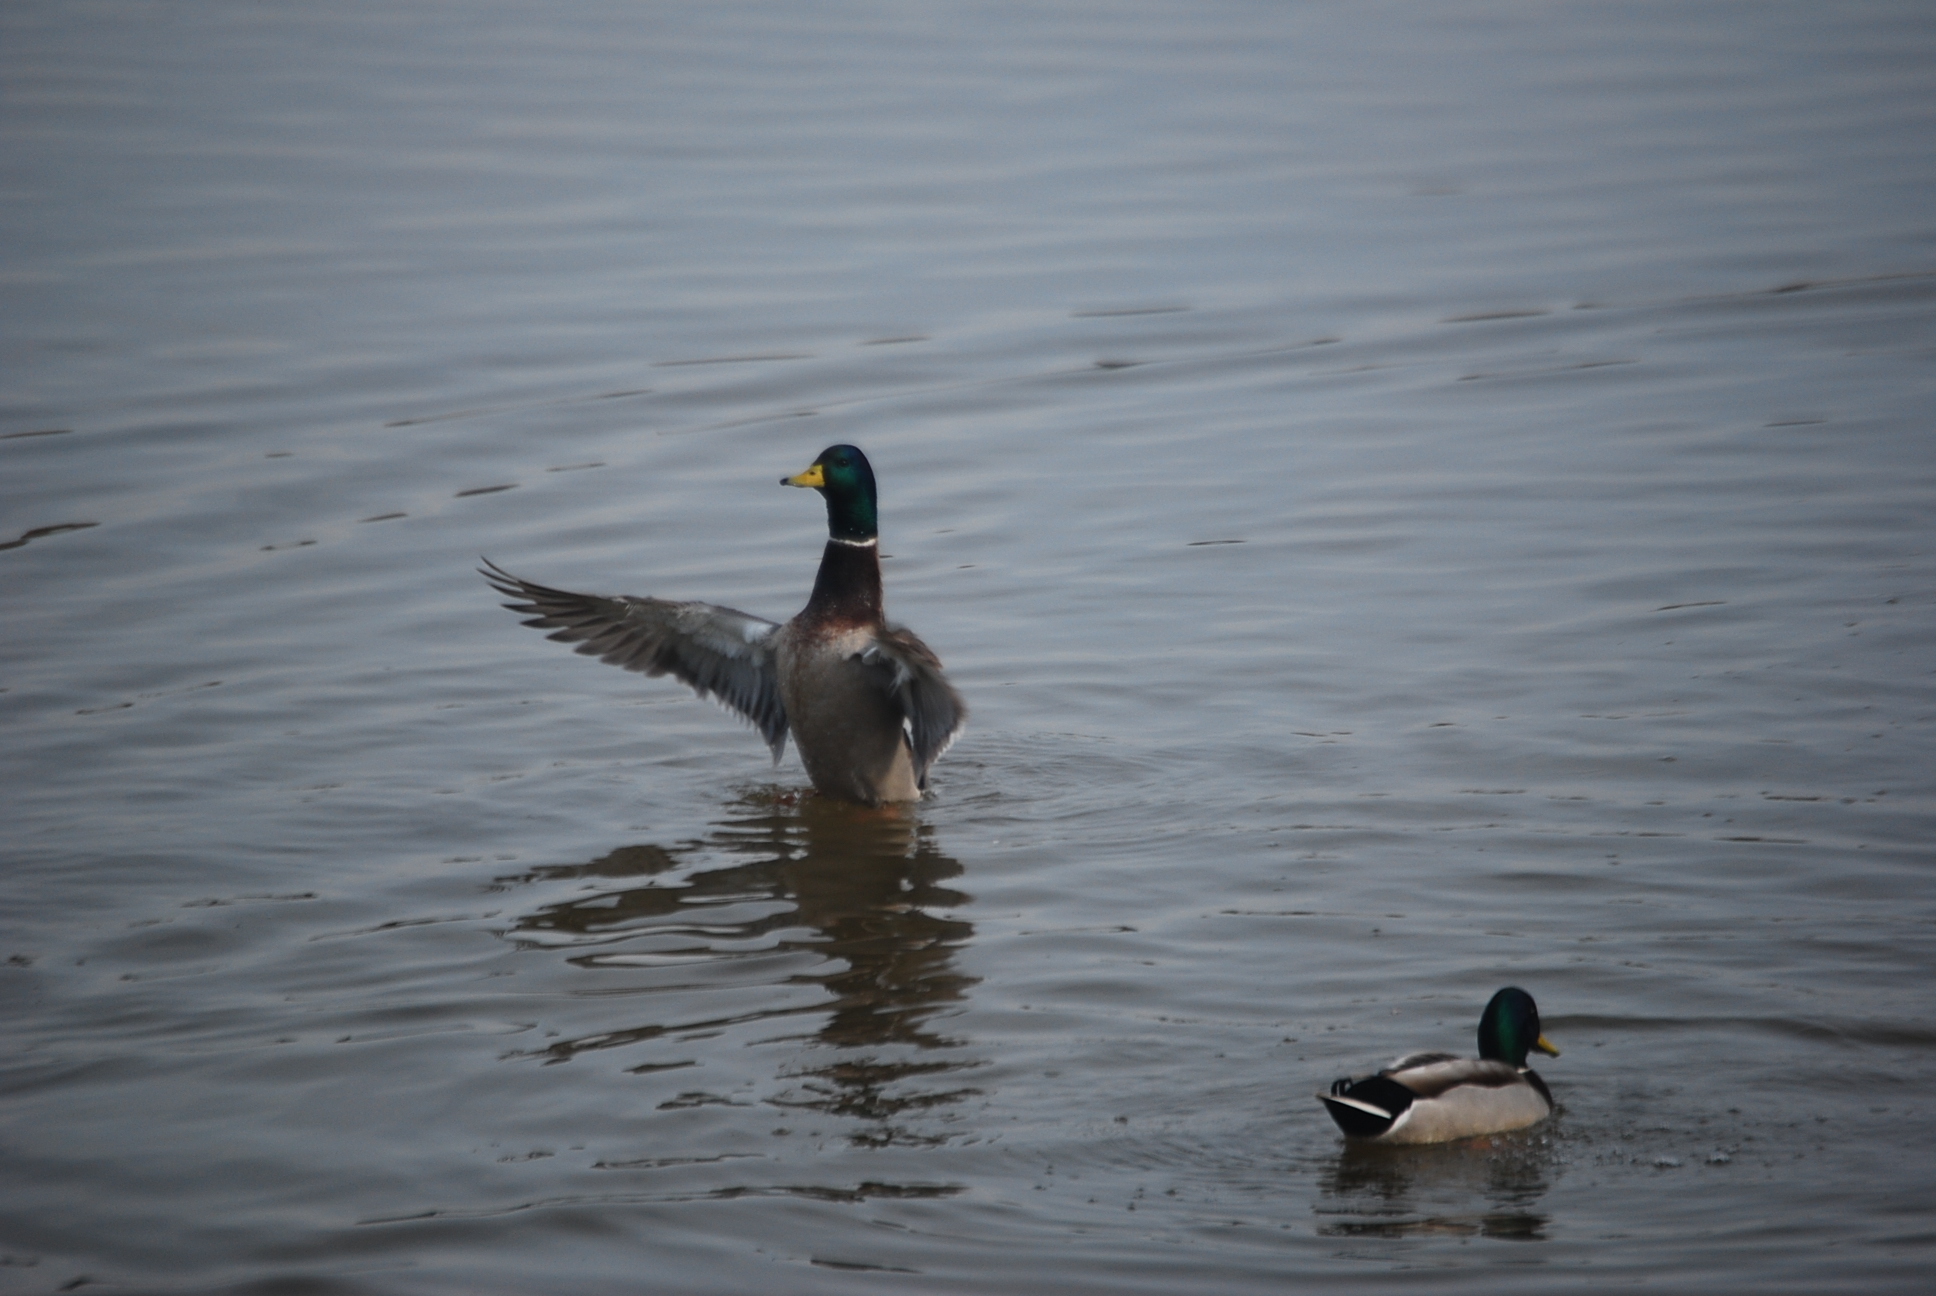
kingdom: Animalia
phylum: Chordata
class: Aves
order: Anseriformes
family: Anatidae
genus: Anas
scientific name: Anas platyrhynchos
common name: Mallard
